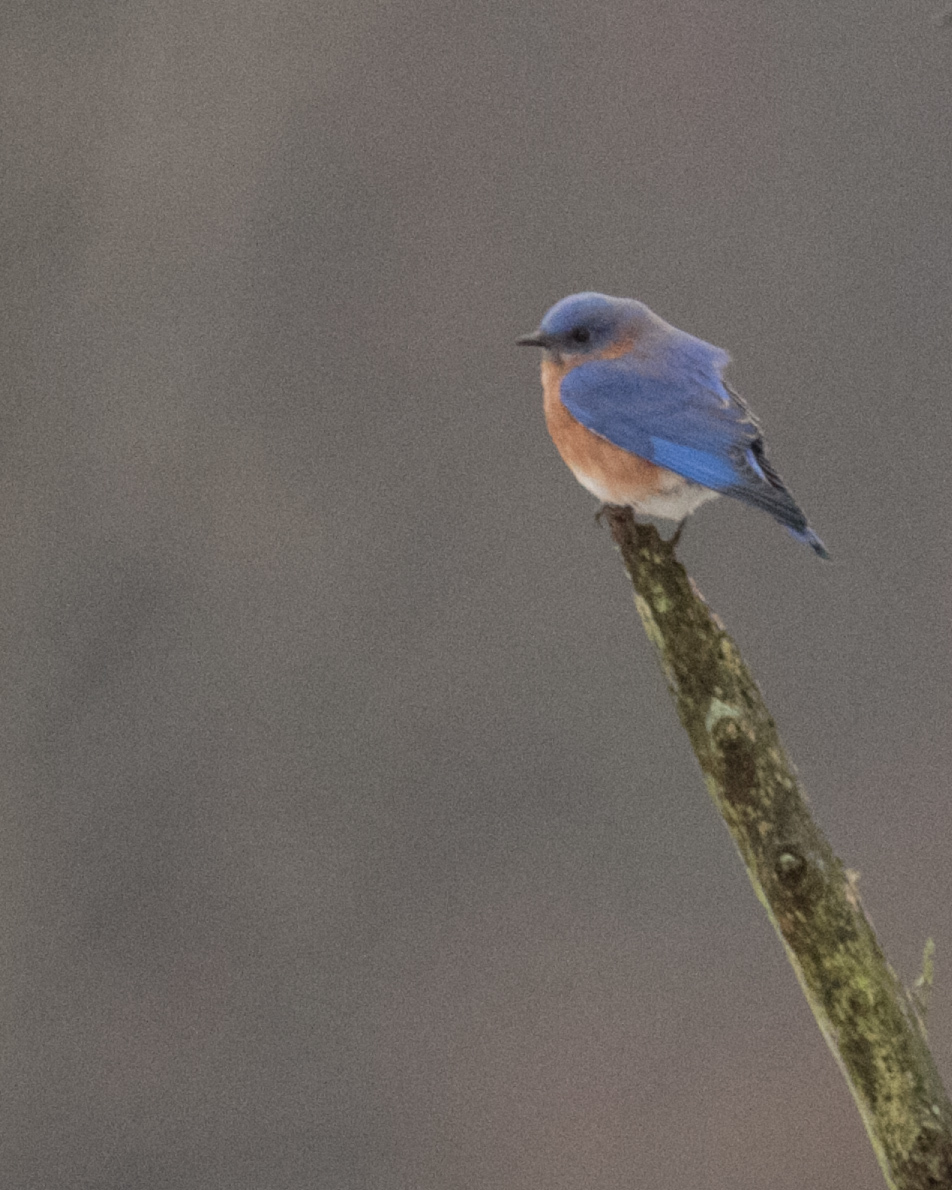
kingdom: Animalia
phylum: Chordata
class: Aves
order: Passeriformes
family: Turdidae
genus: Sialia
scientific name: Sialia sialis
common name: Eastern bluebird
